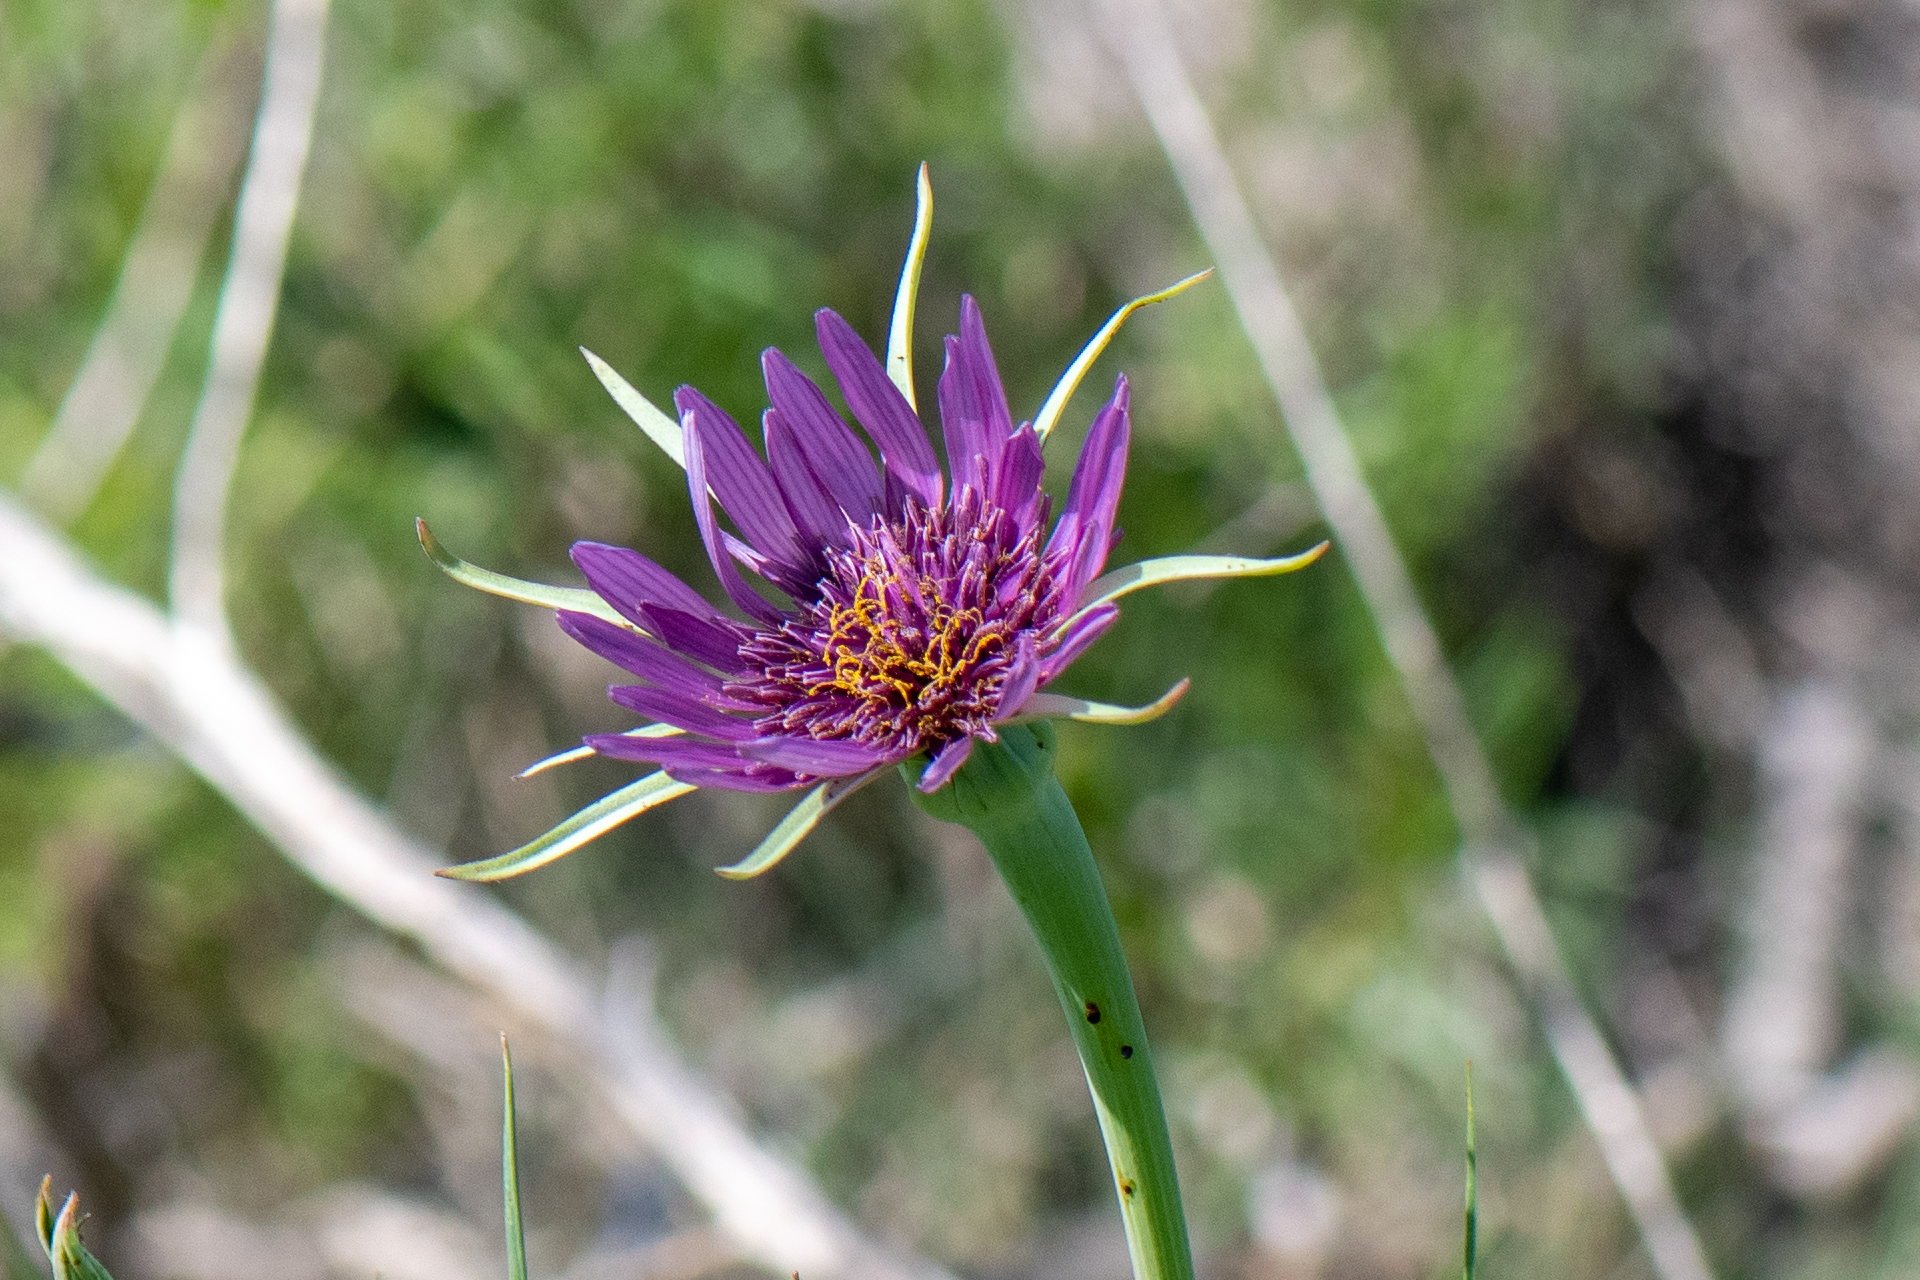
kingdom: Plantae
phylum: Tracheophyta
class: Magnoliopsida
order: Asterales
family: Asteraceae
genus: Tragopogon
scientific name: Tragopogon porrifolius
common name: Salsify
